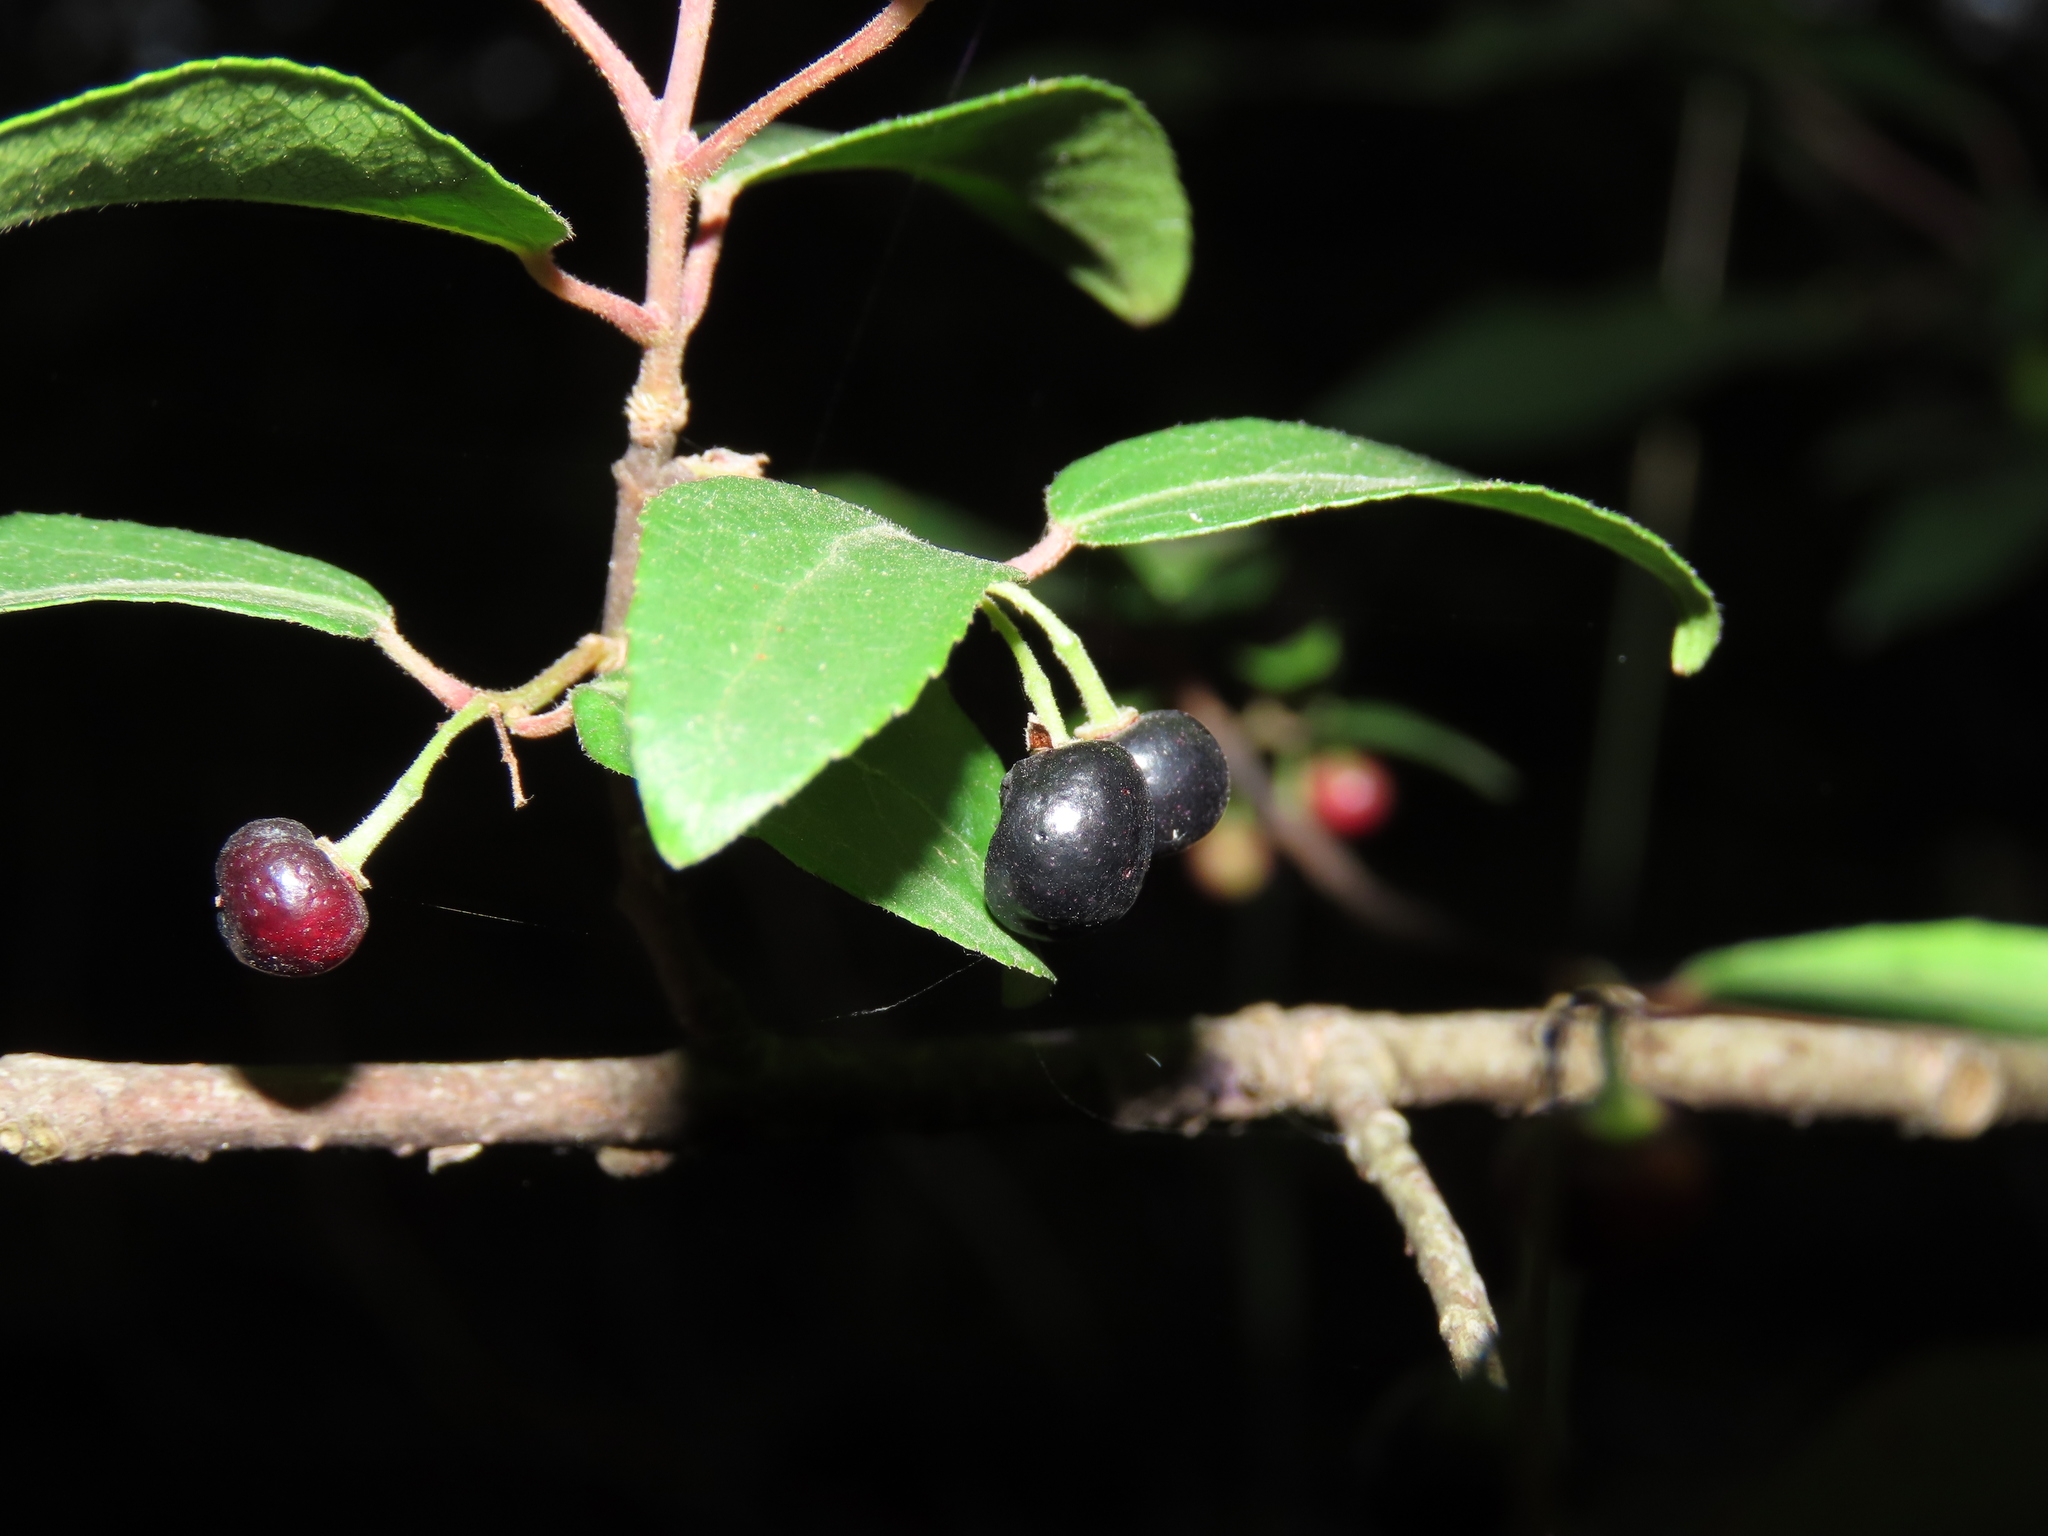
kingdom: Plantae
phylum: Tracheophyta
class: Magnoliopsida
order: Oxalidales
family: Elaeocarpaceae
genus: Aristotelia
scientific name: Aristotelia chilensis
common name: Maquei
